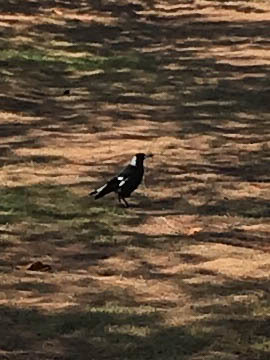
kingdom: Animalia
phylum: Chordata
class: Aves
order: Passeriformes
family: Cracticidae
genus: Gymnorhina
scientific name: Gymnorhina tibicen
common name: Australian magpie
